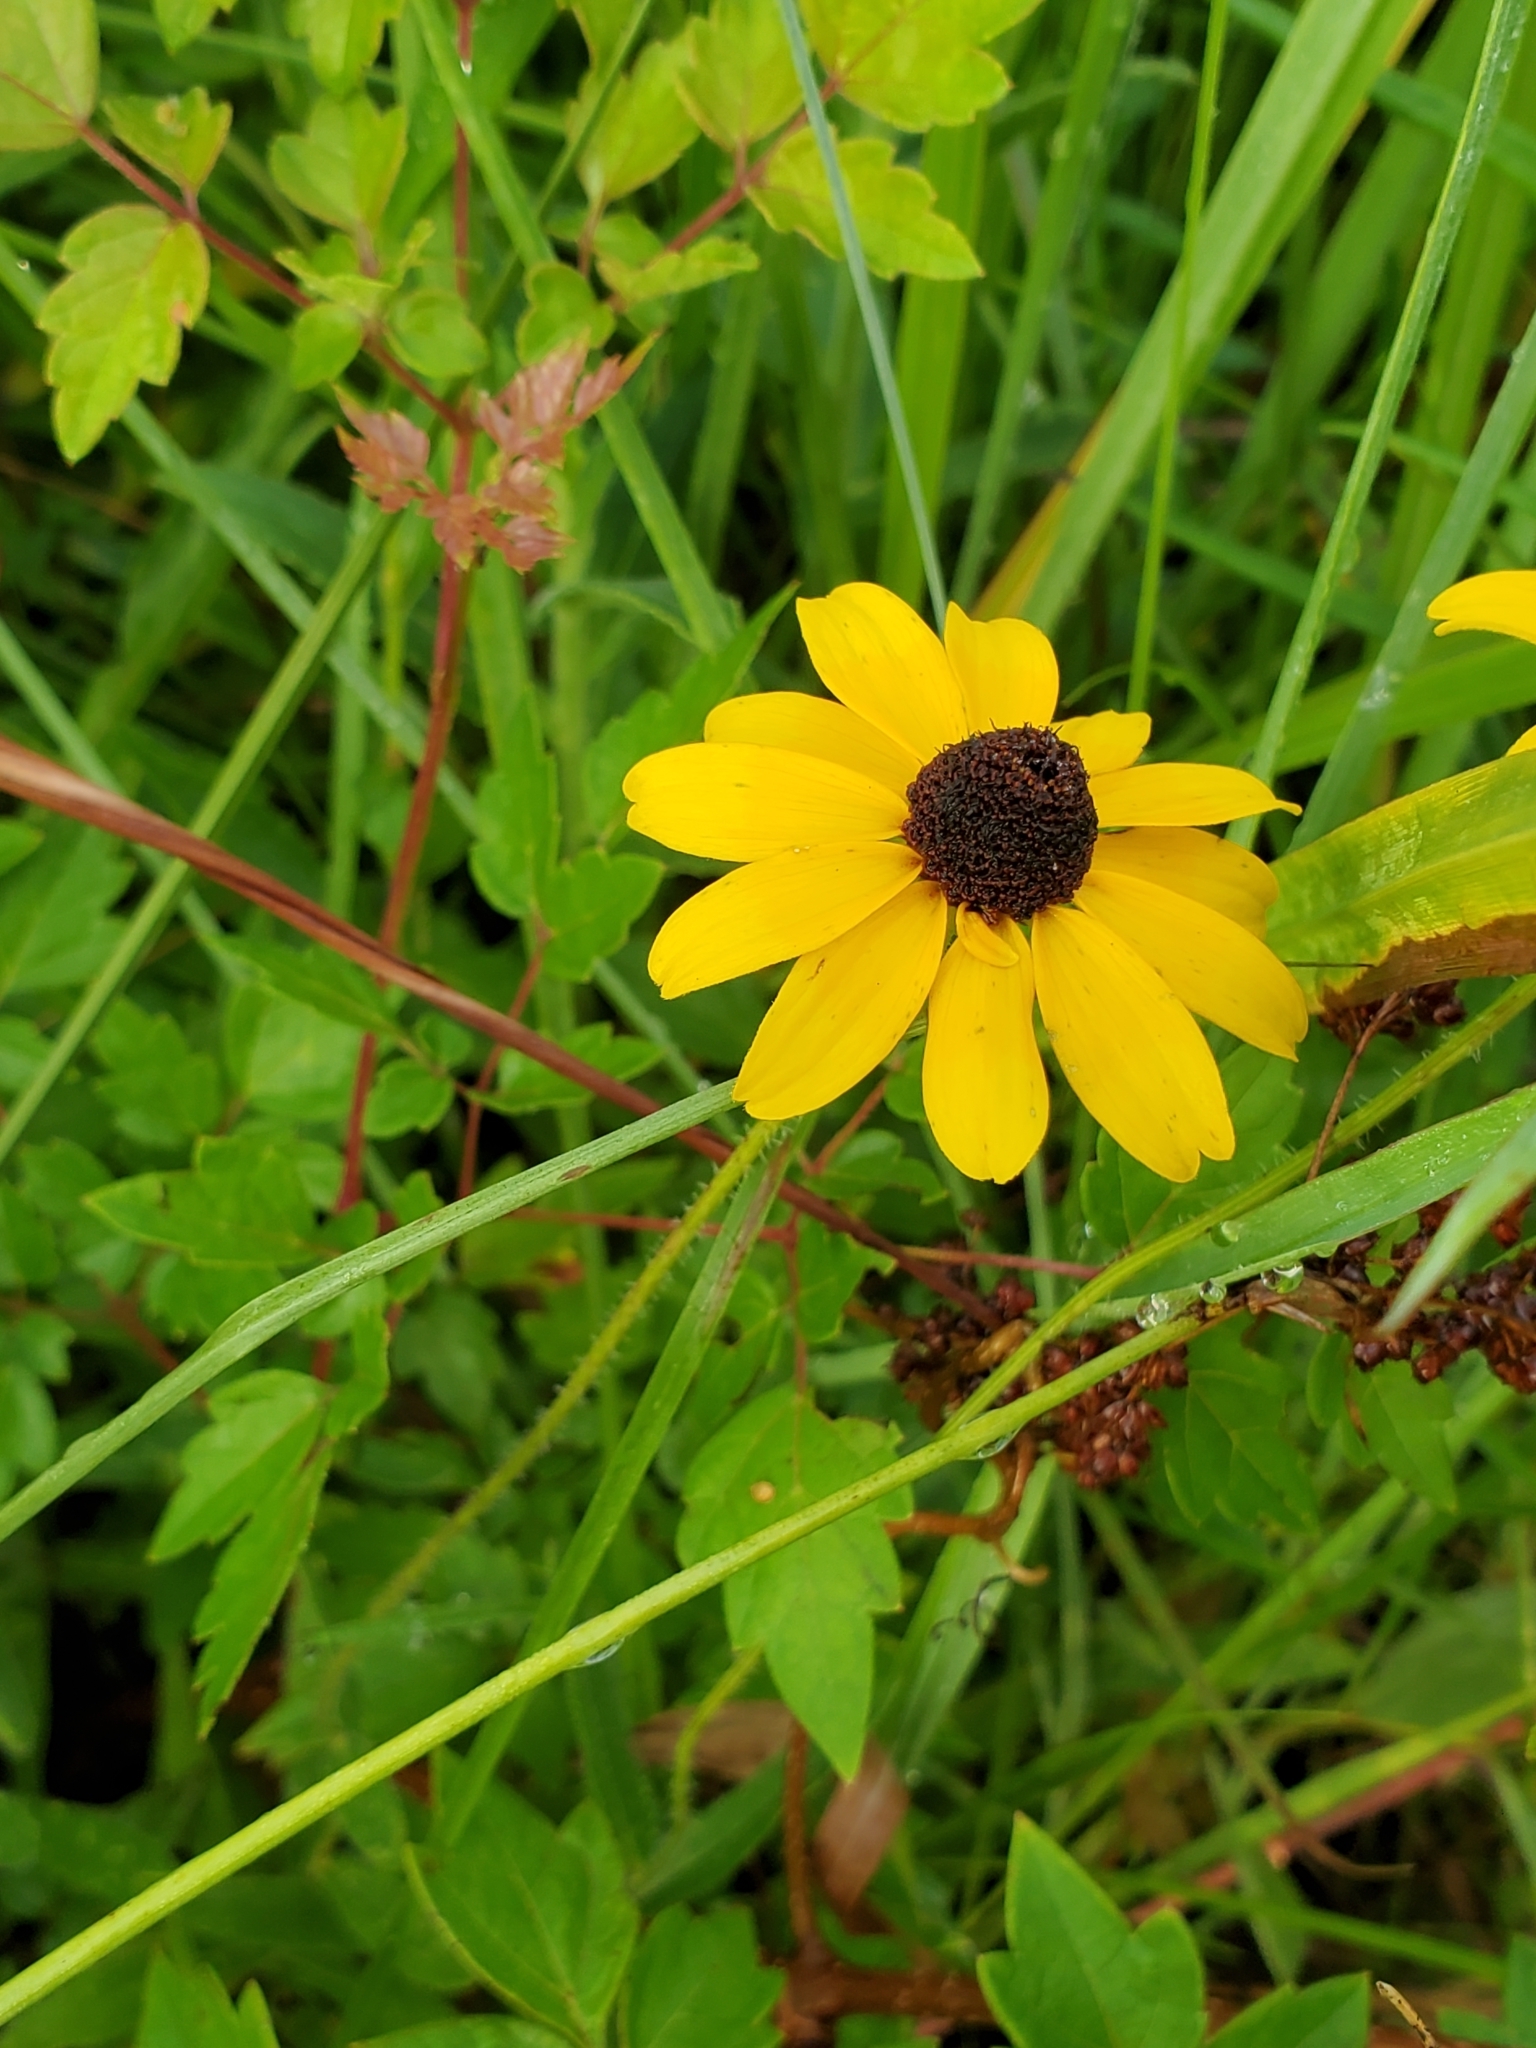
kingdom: Plantae
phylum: Tracheophyta
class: Magnoliopsida
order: Asterales
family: Asteraceae
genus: Rudbeckia
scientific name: Rudbeckia hirta
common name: Black-eyed-susan
